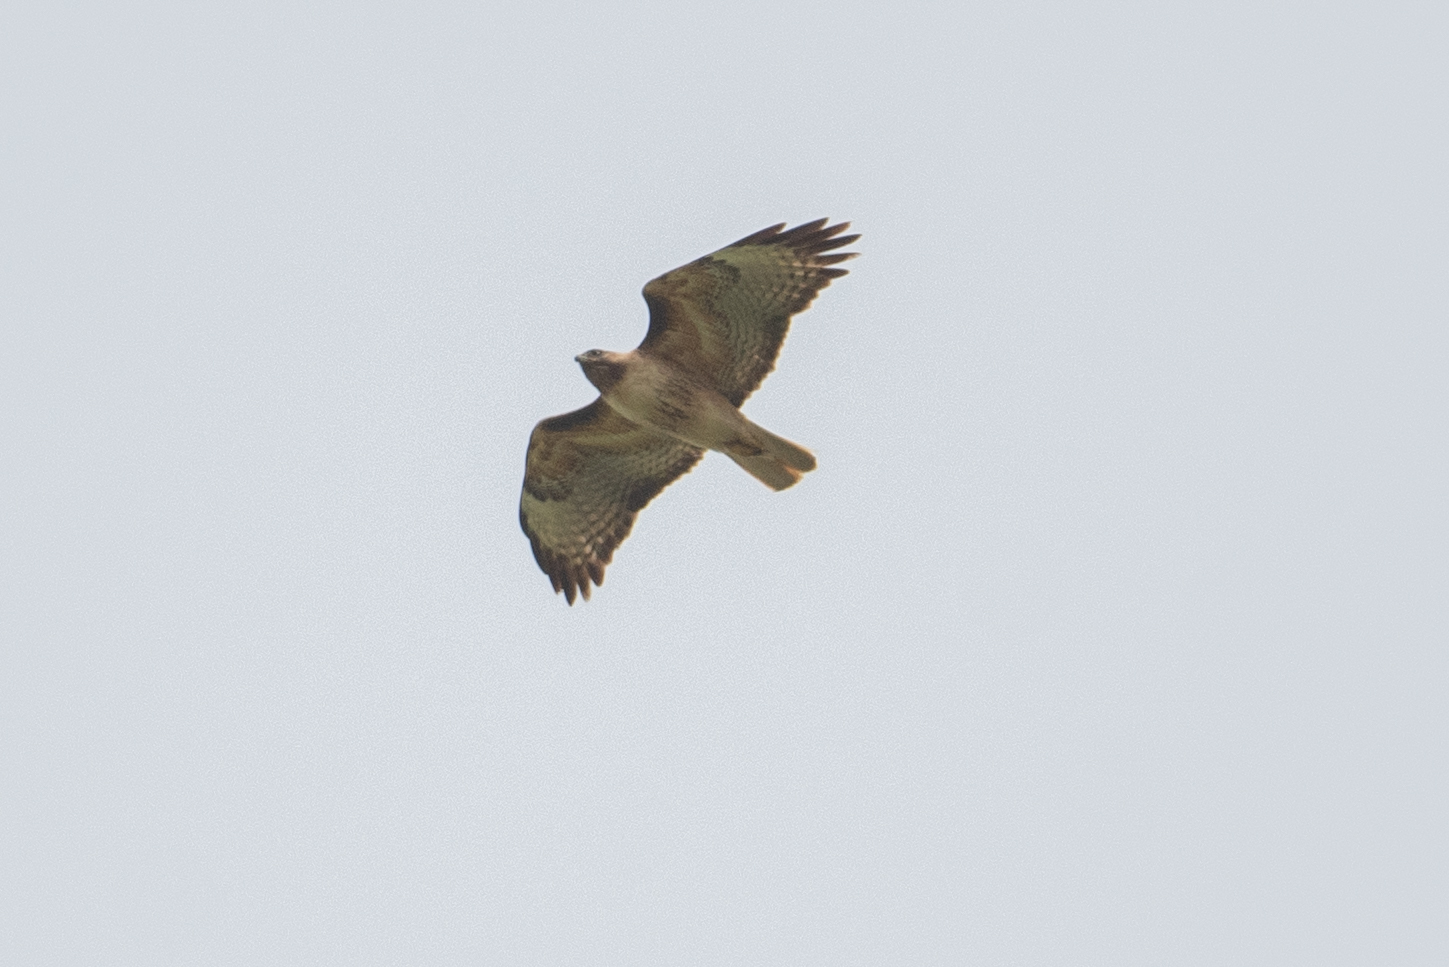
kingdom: Animalia
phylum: Chordata
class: Aves
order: Accipitriformes
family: Accipitridae
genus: Buteo
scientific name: Buteo jamaicensis
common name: Red-tailed hawk
